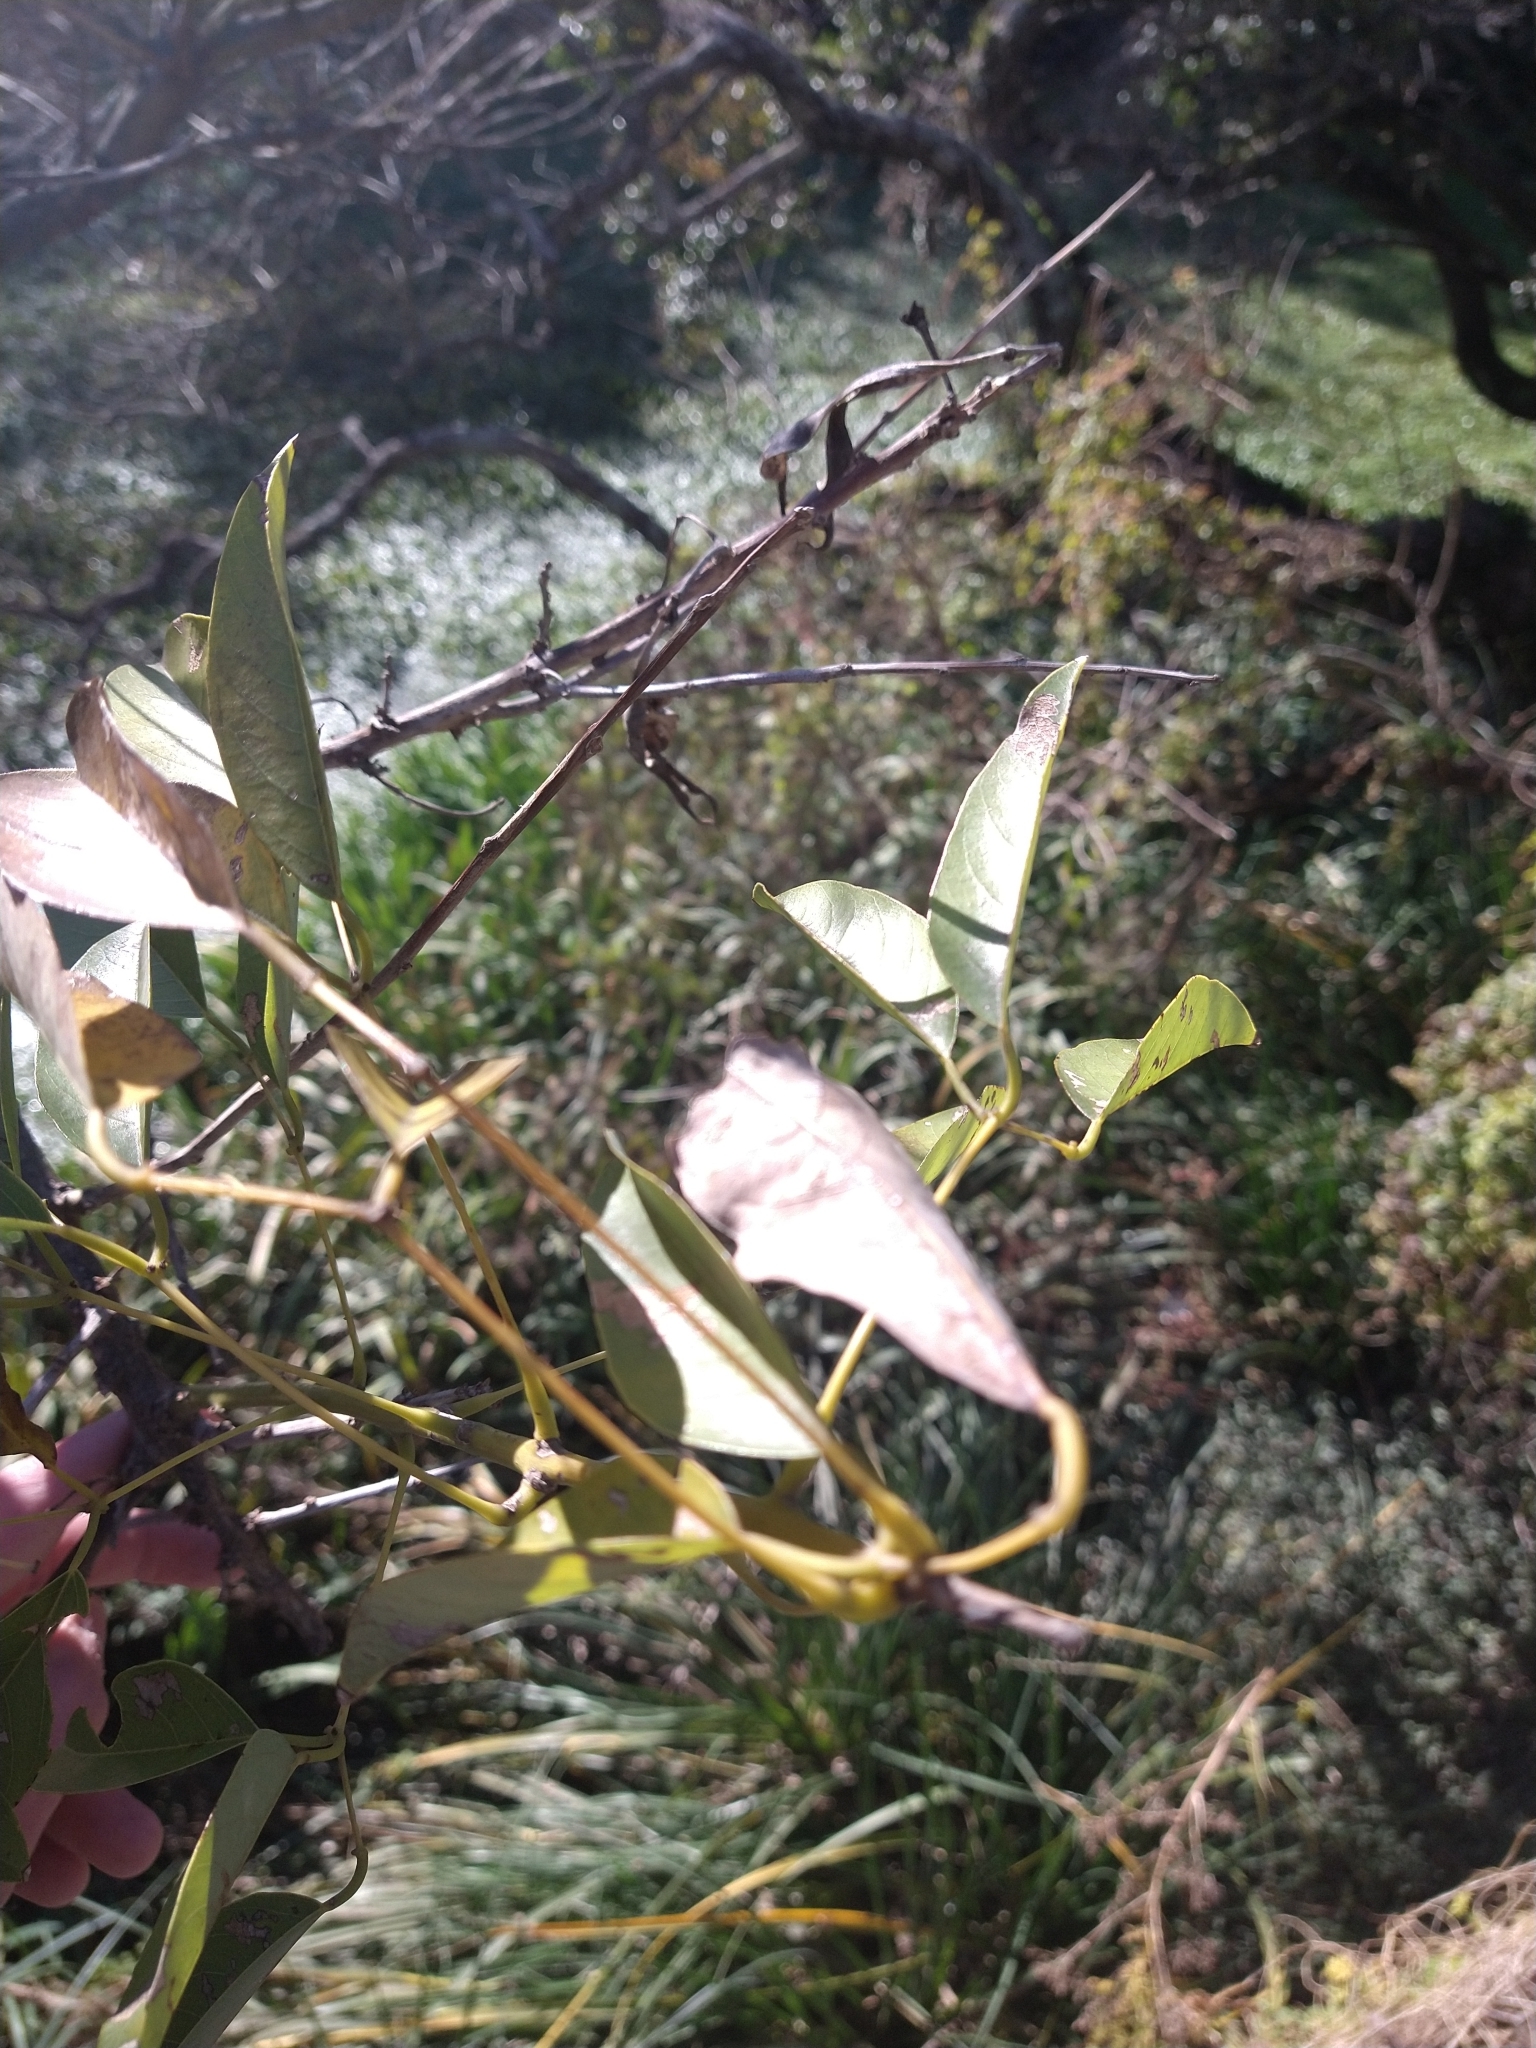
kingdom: Plantae
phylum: Tracheophyta
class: Magnoliopsida
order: Fabales
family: Fabaceae
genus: Erythrina
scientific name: Erythrina crista-galli
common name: Cockspur coral tree
